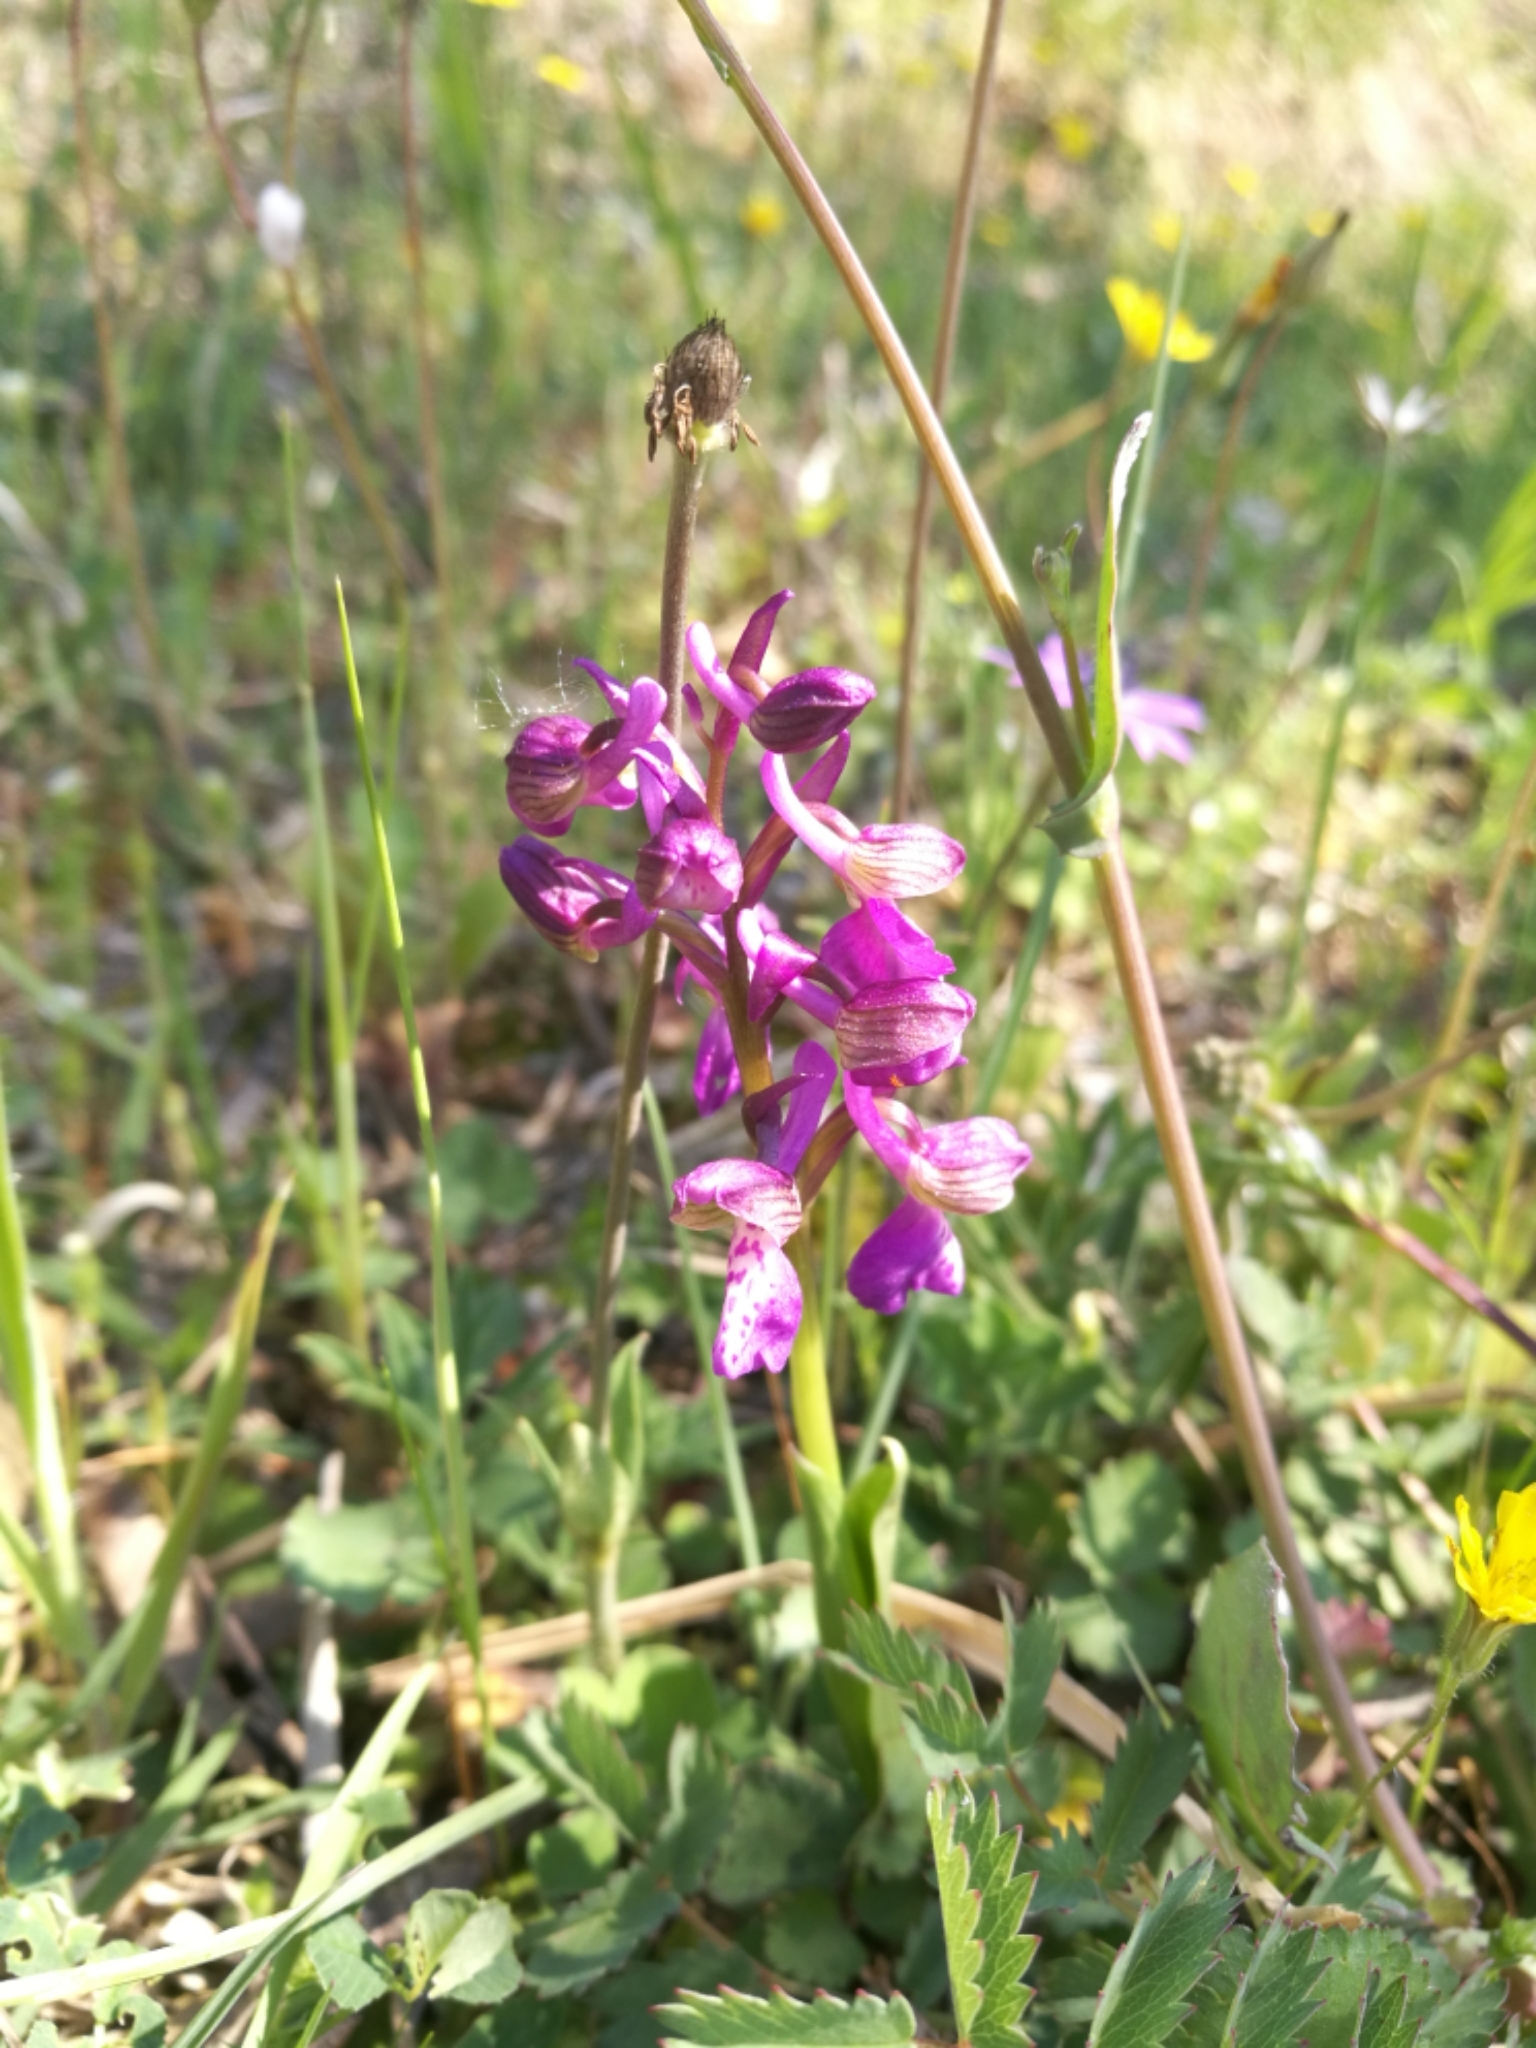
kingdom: Plantae
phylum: Tracheophyta
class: Liliopsida
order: Asparagales
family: Orchidaceae
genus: Anacamptis
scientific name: Anacamptis morio
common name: Green-winged orchid
